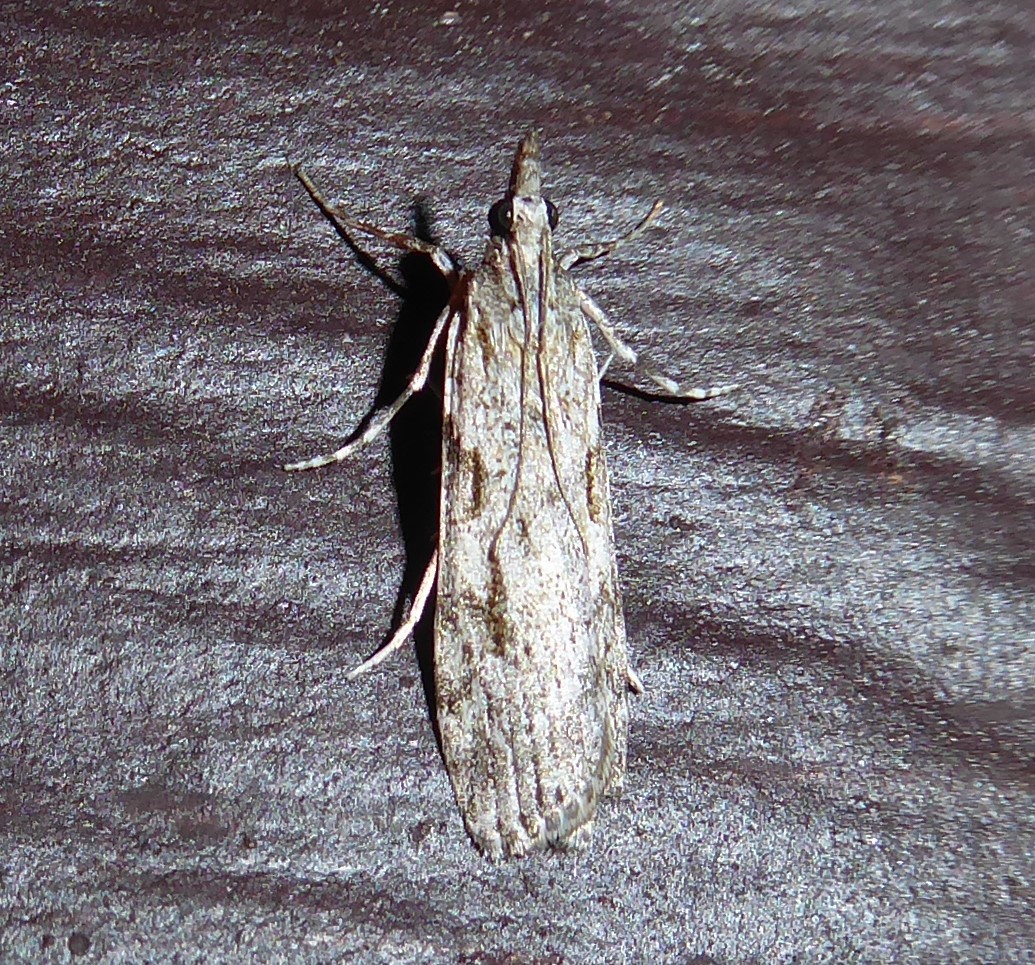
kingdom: Animalia
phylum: Arthropoda
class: Insecta
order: Lepidoptera
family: Crambidae
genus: Scoparia
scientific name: Scoparia halopis
